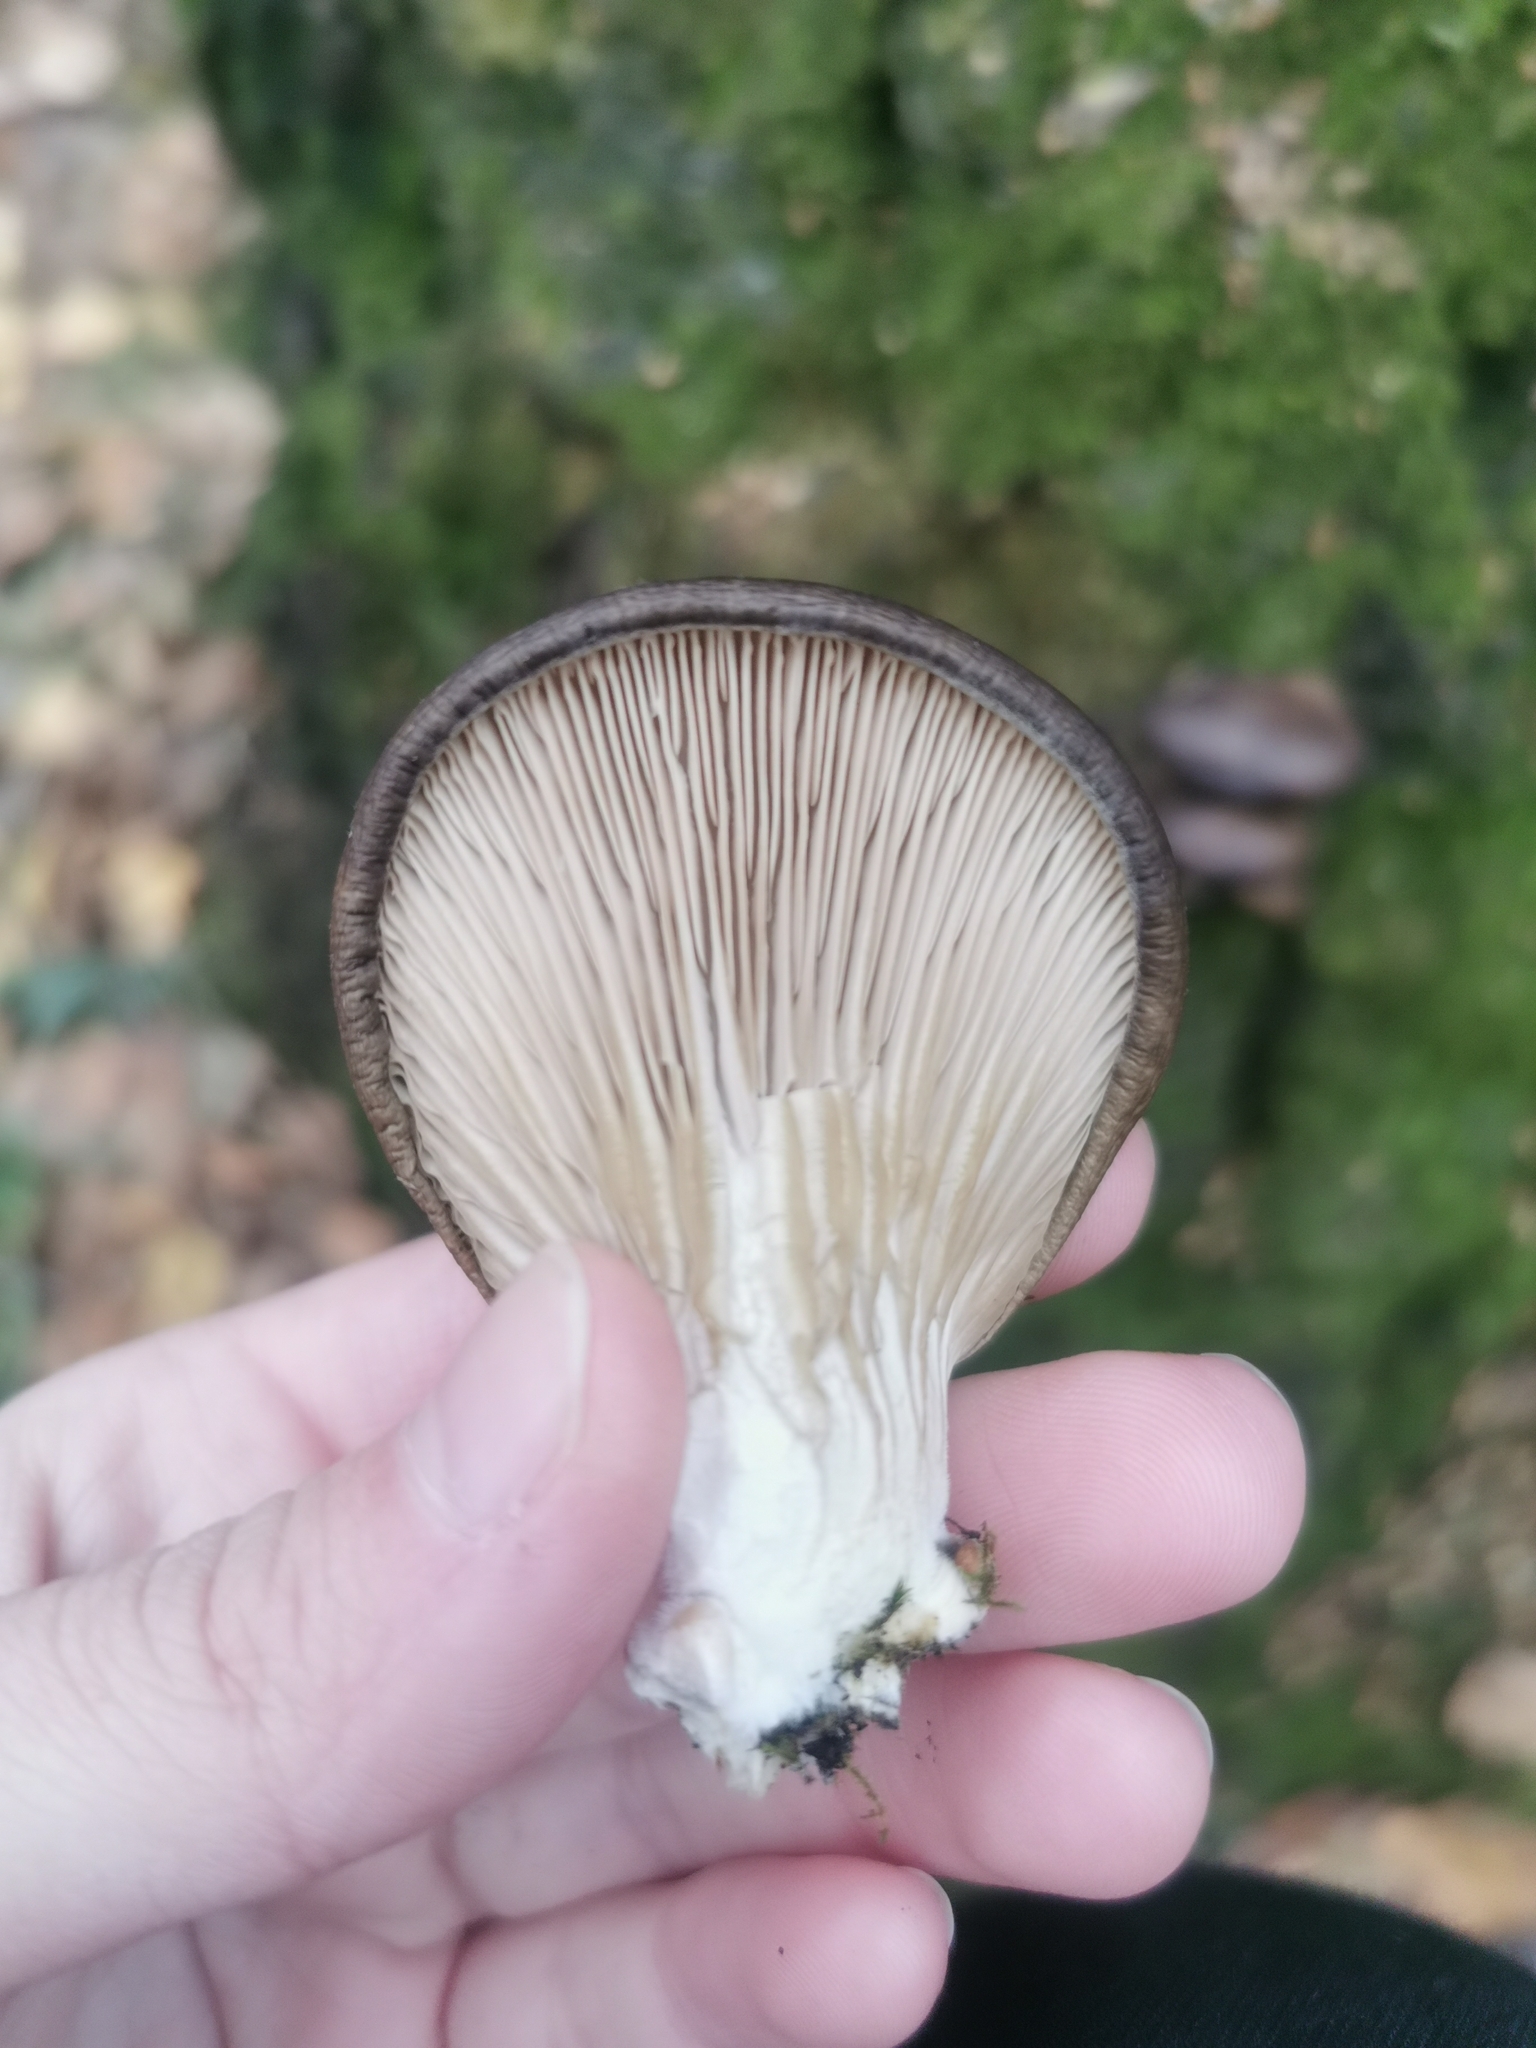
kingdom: Fungi
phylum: Basidiomycota
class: Agaricomycetes
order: Agaricales
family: Pleurotaceae
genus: Pleurotus
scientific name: Pleurotus ostreatus
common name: Oyster mushroom
